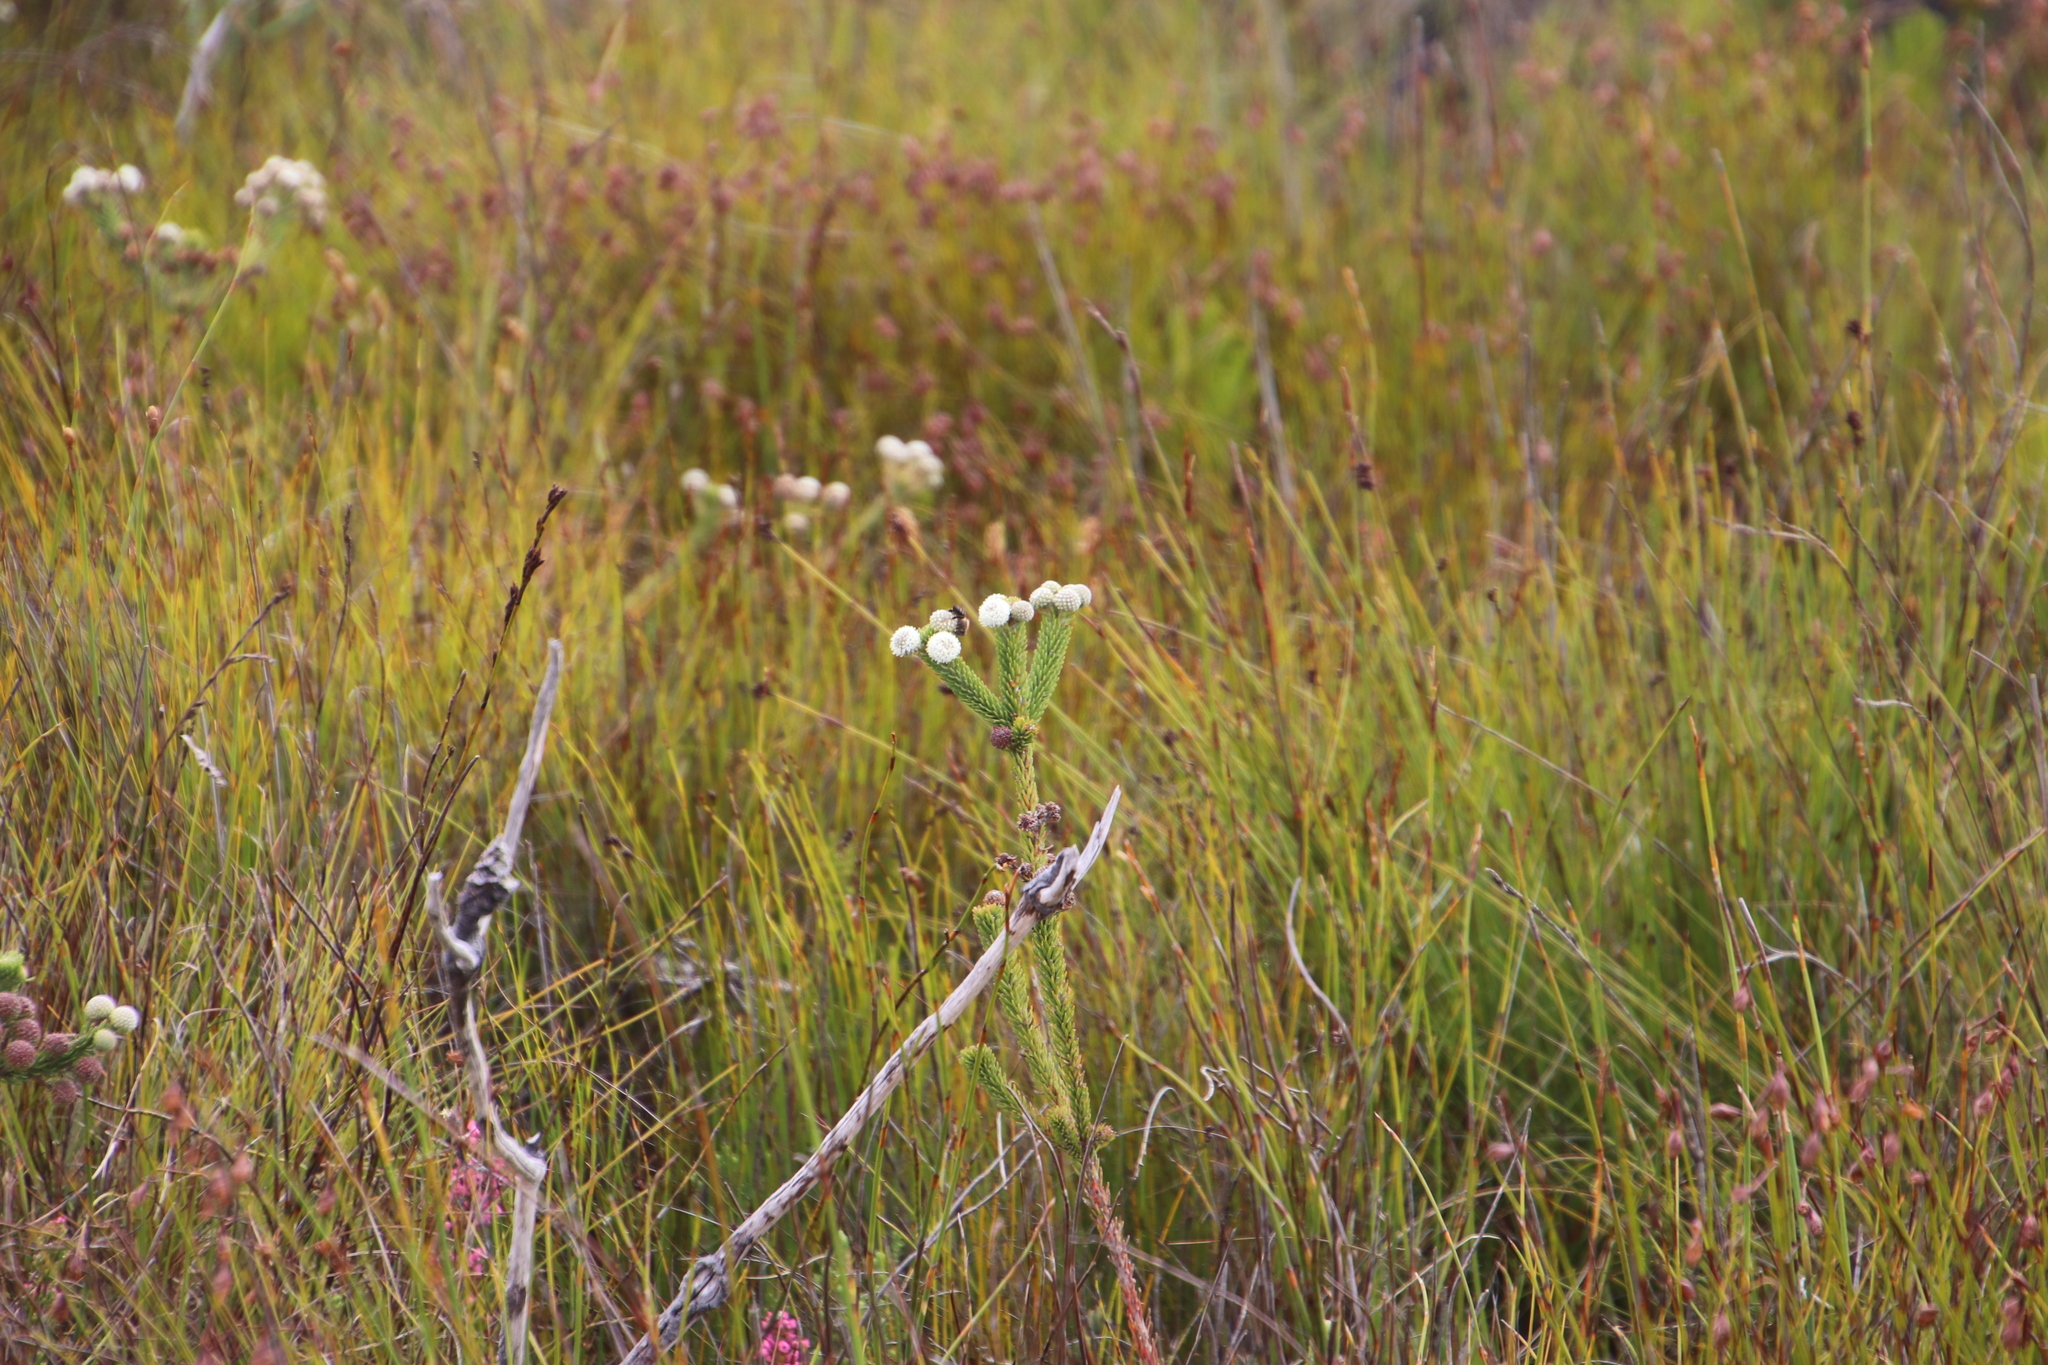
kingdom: Plantae
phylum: Tracheophyta
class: Magnoliopsida
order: Bruniales
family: Bruniaceae
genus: Berzelia
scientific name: Berzelia incurva
